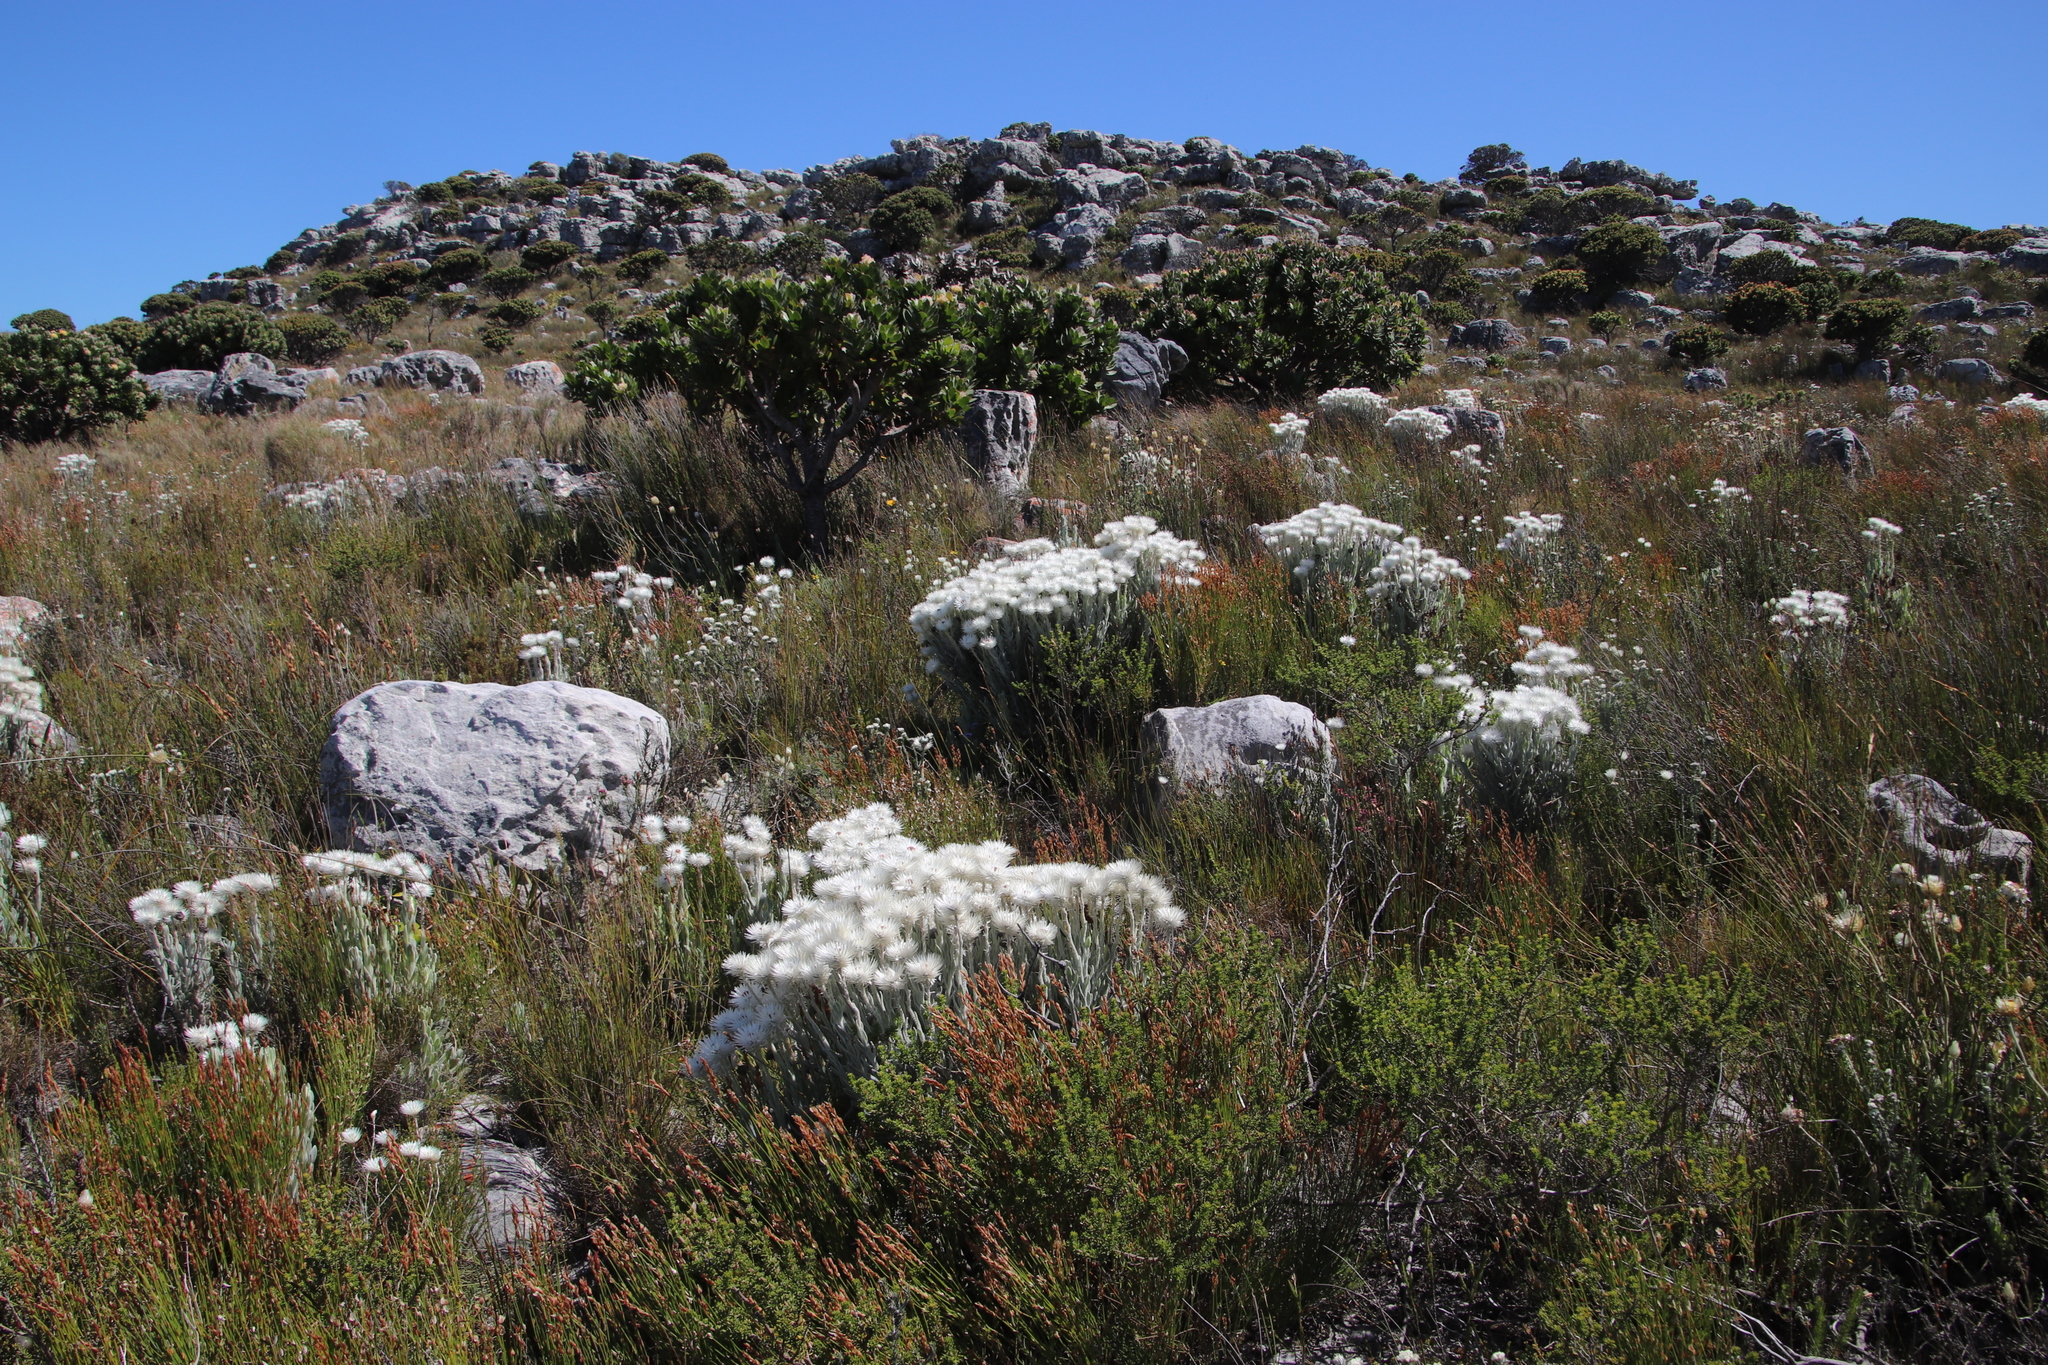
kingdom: Plantae
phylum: Tracheophyta
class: Magnoliopsida
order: Asterales
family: Asteraceae
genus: Syncarpha
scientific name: Syncarpha vestita
